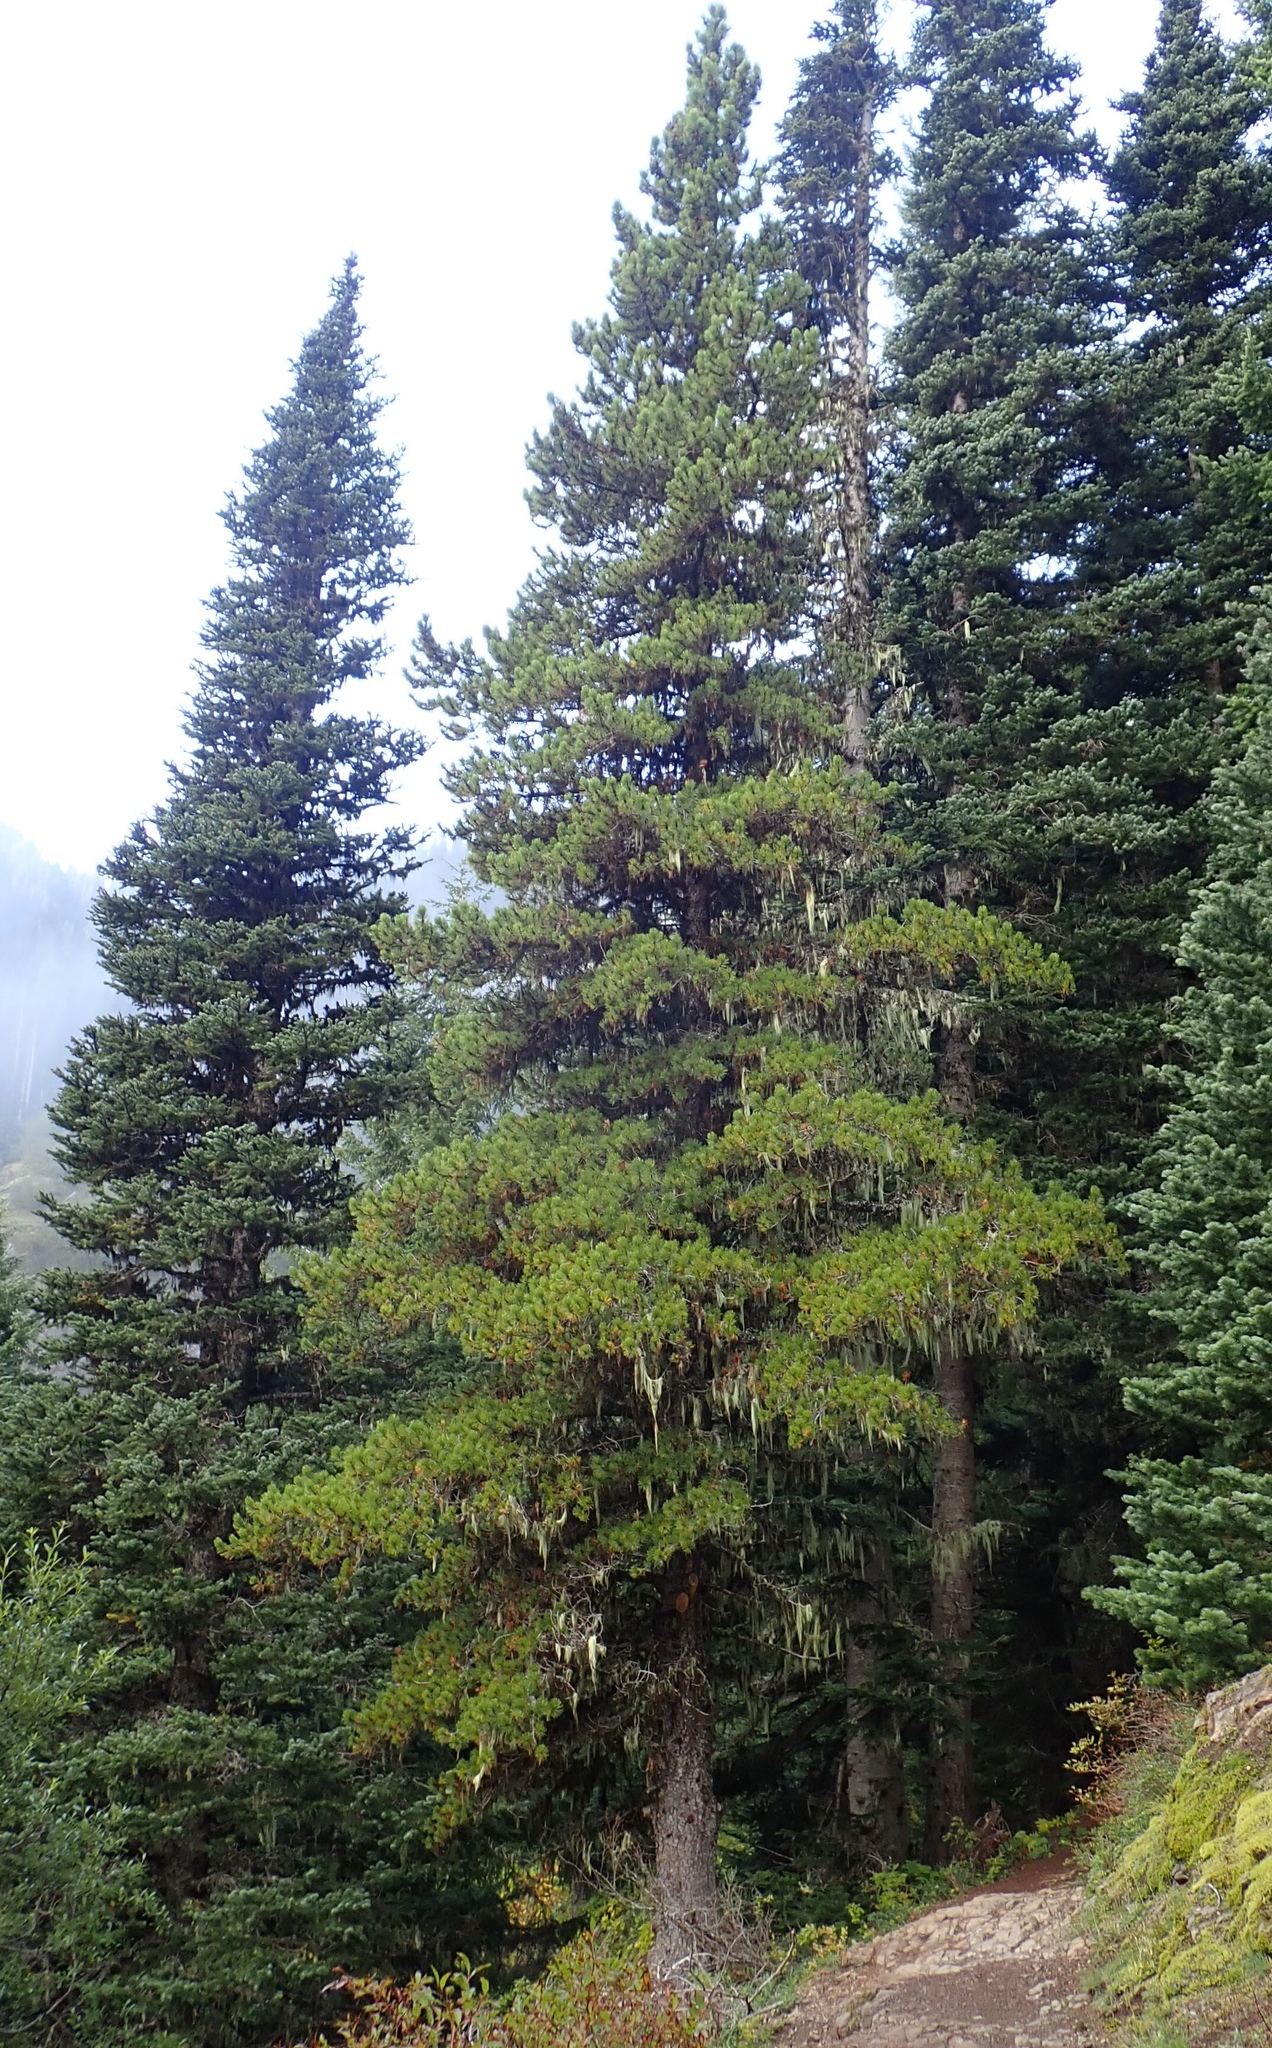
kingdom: Plantae
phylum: Tracheophyta
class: Pinopsida
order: Pinales
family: Pinaceae
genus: Pinus
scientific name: Pinus contorta
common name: Lodgepole pine
